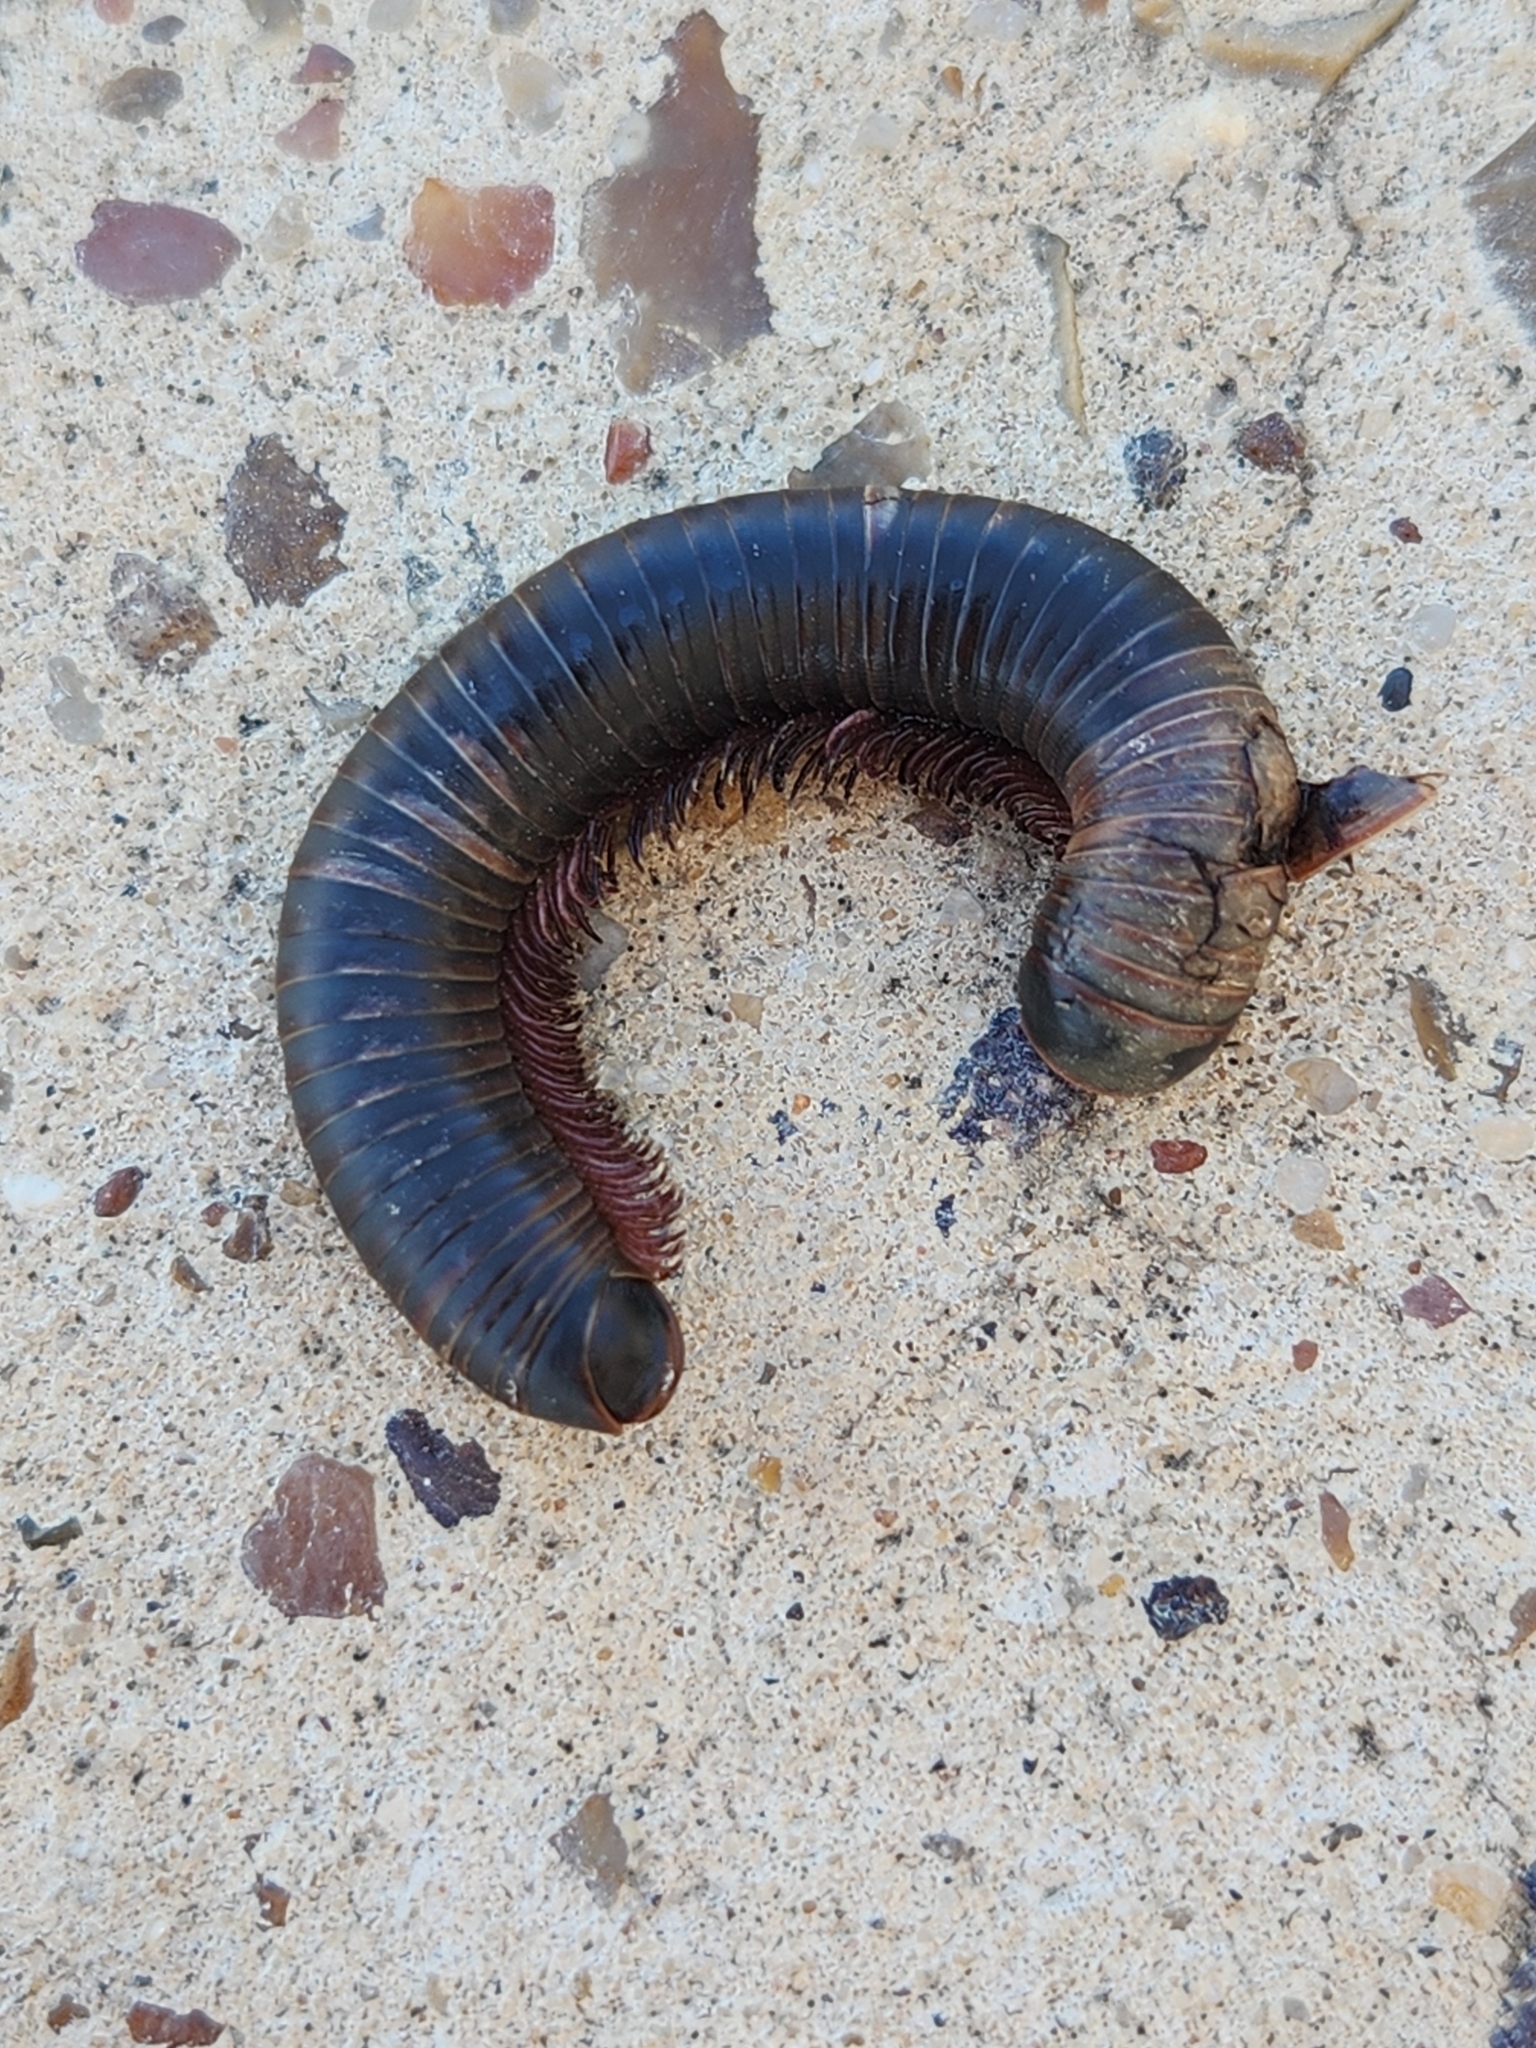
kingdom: Animalia
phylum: Arthropoda
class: Diplopoda
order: Spirobolida
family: Spirobolidae
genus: Narceus
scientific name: Narceus americanus
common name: American giant millipede
